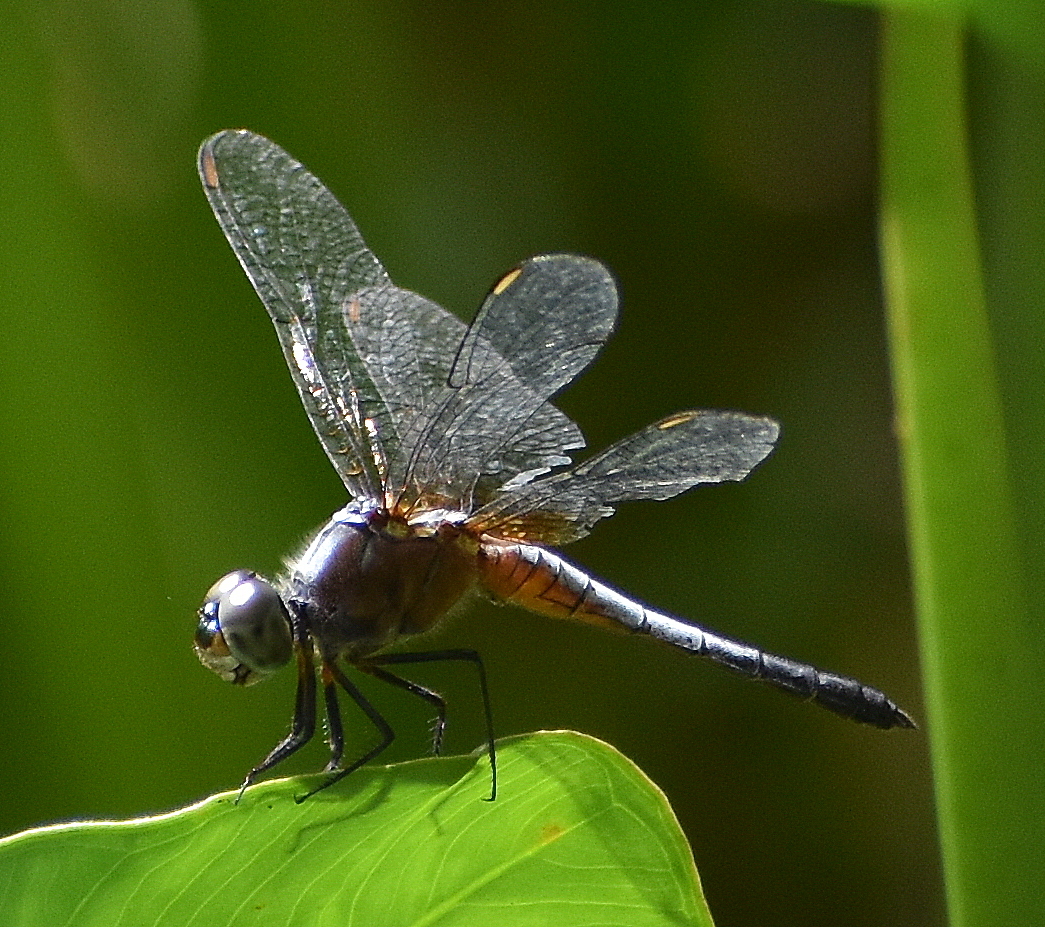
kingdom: Animalia
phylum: Arthropoda
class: Insecta
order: Odonata
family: Libellulidae
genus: Brachydiplax
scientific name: Brachydiplax chalybea
